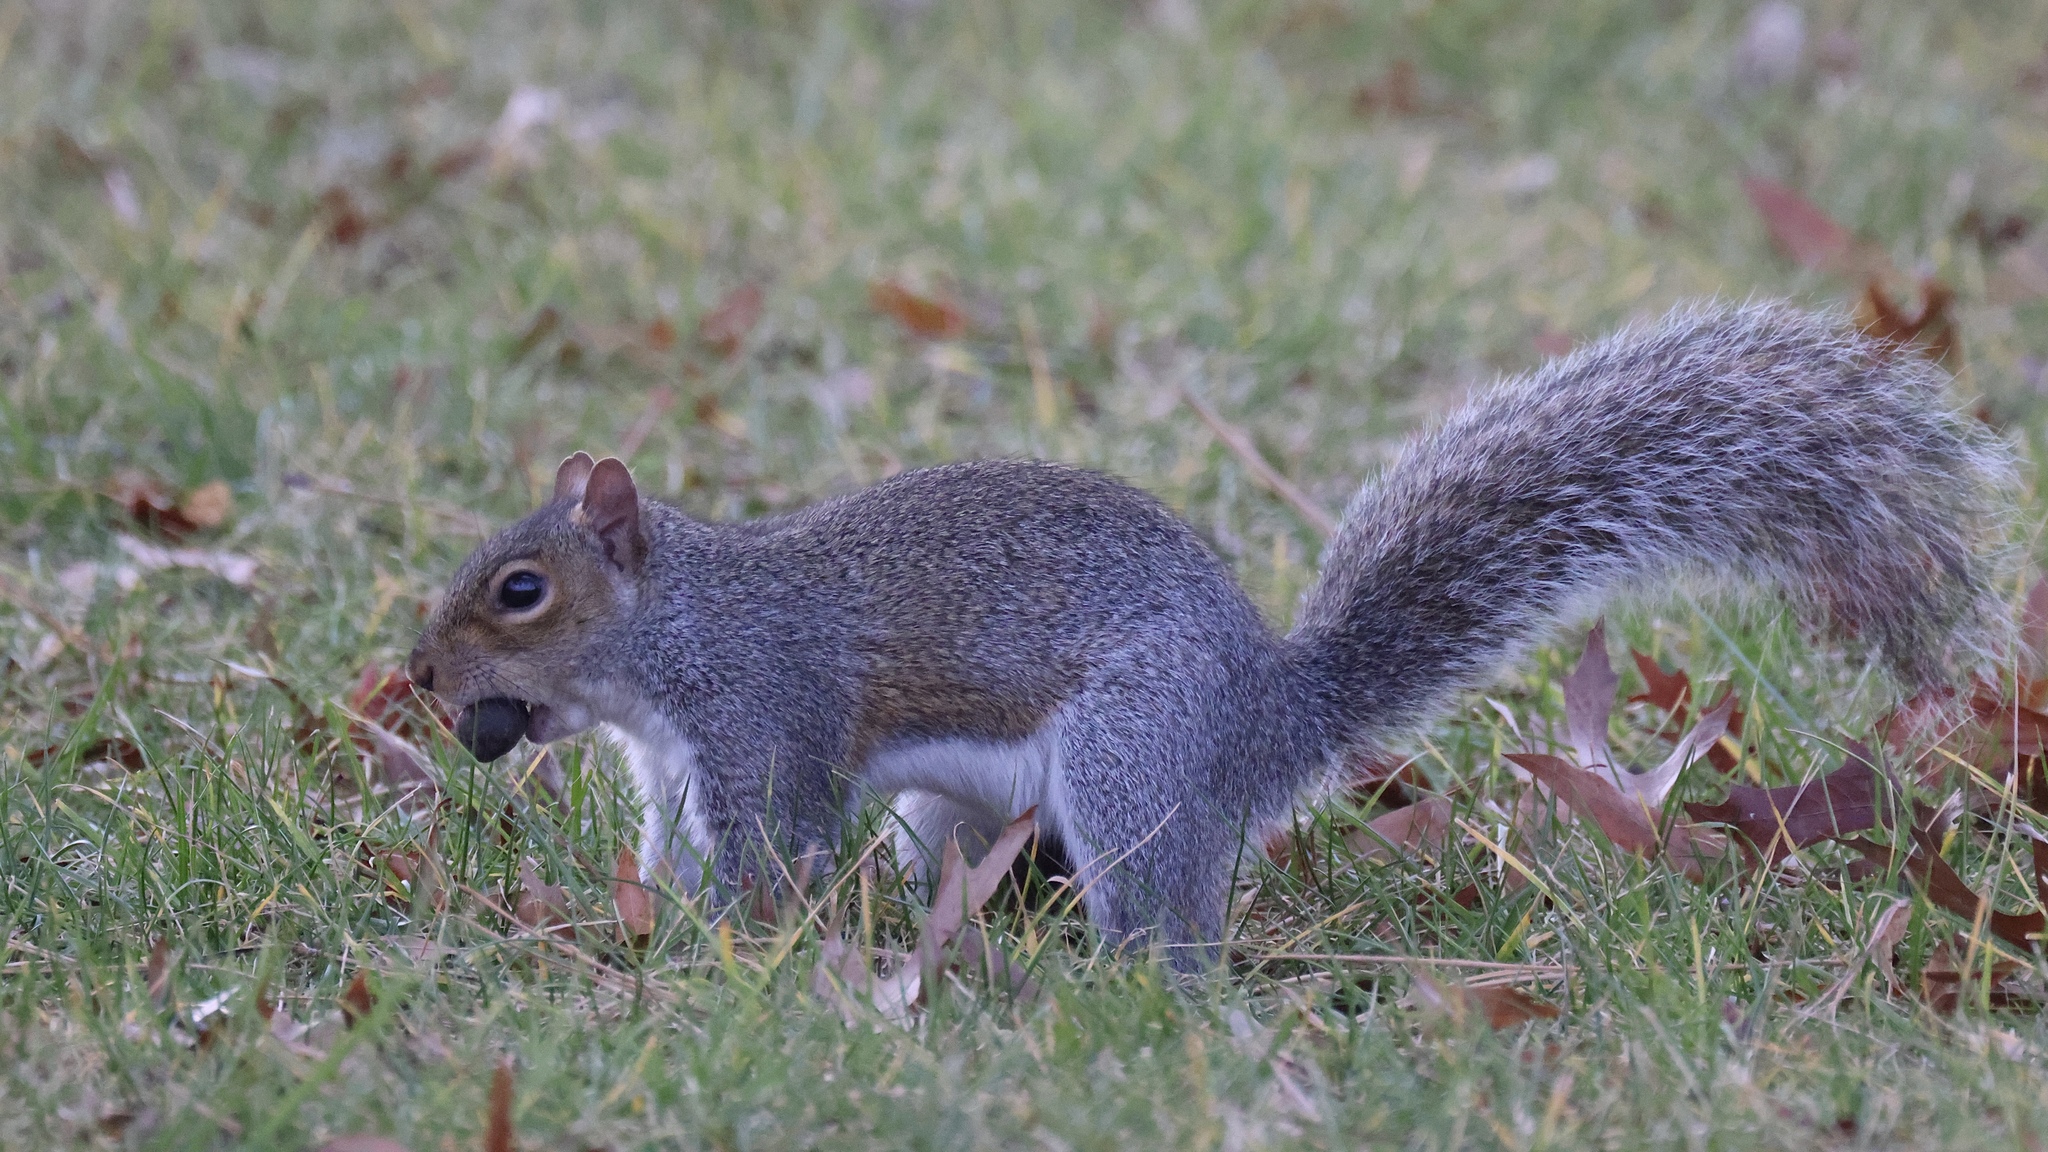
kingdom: Animalia
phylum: Chordata
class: Mammalia
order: Rodentia
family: Sciuridae
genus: Sciurus
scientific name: Sciurus carolinensis
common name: Eastern gray squirrel
